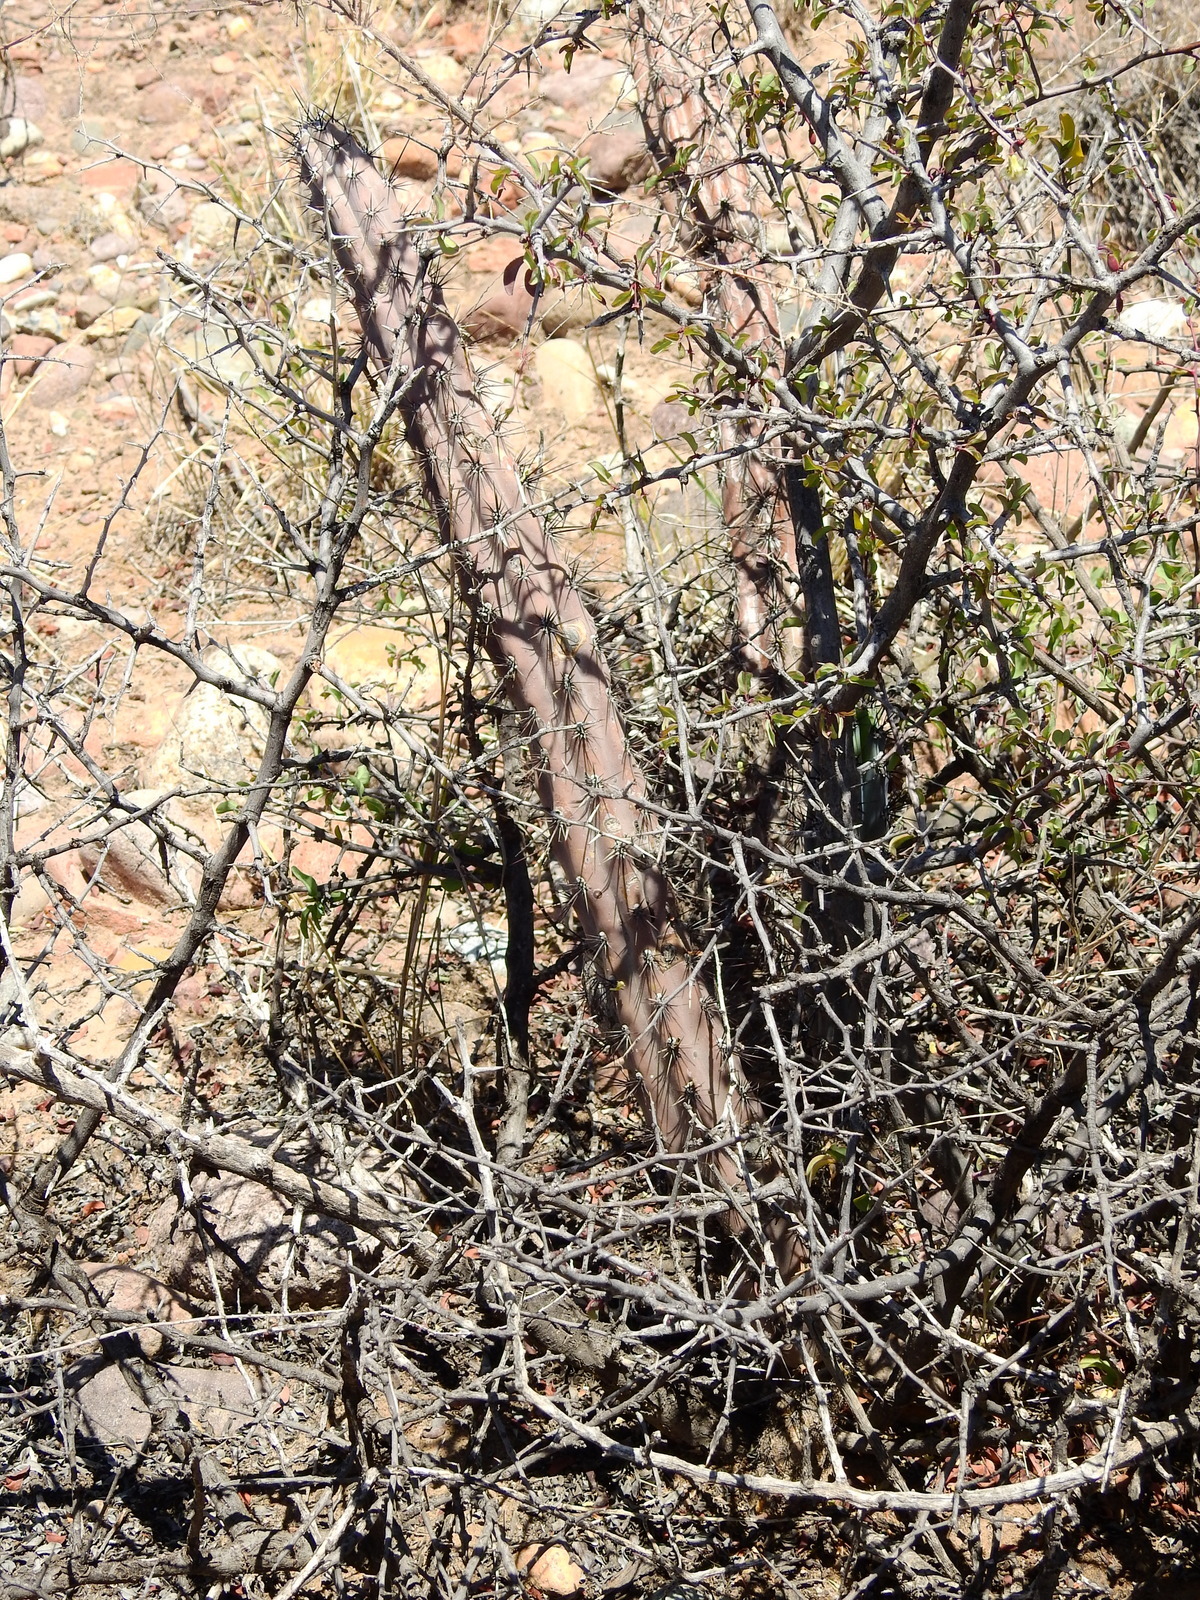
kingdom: Plantae
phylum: Tracheophyta
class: Magnoliopsida
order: Caryophyllales
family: Cactaceae
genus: Cereus
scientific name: Cereus aethiops
